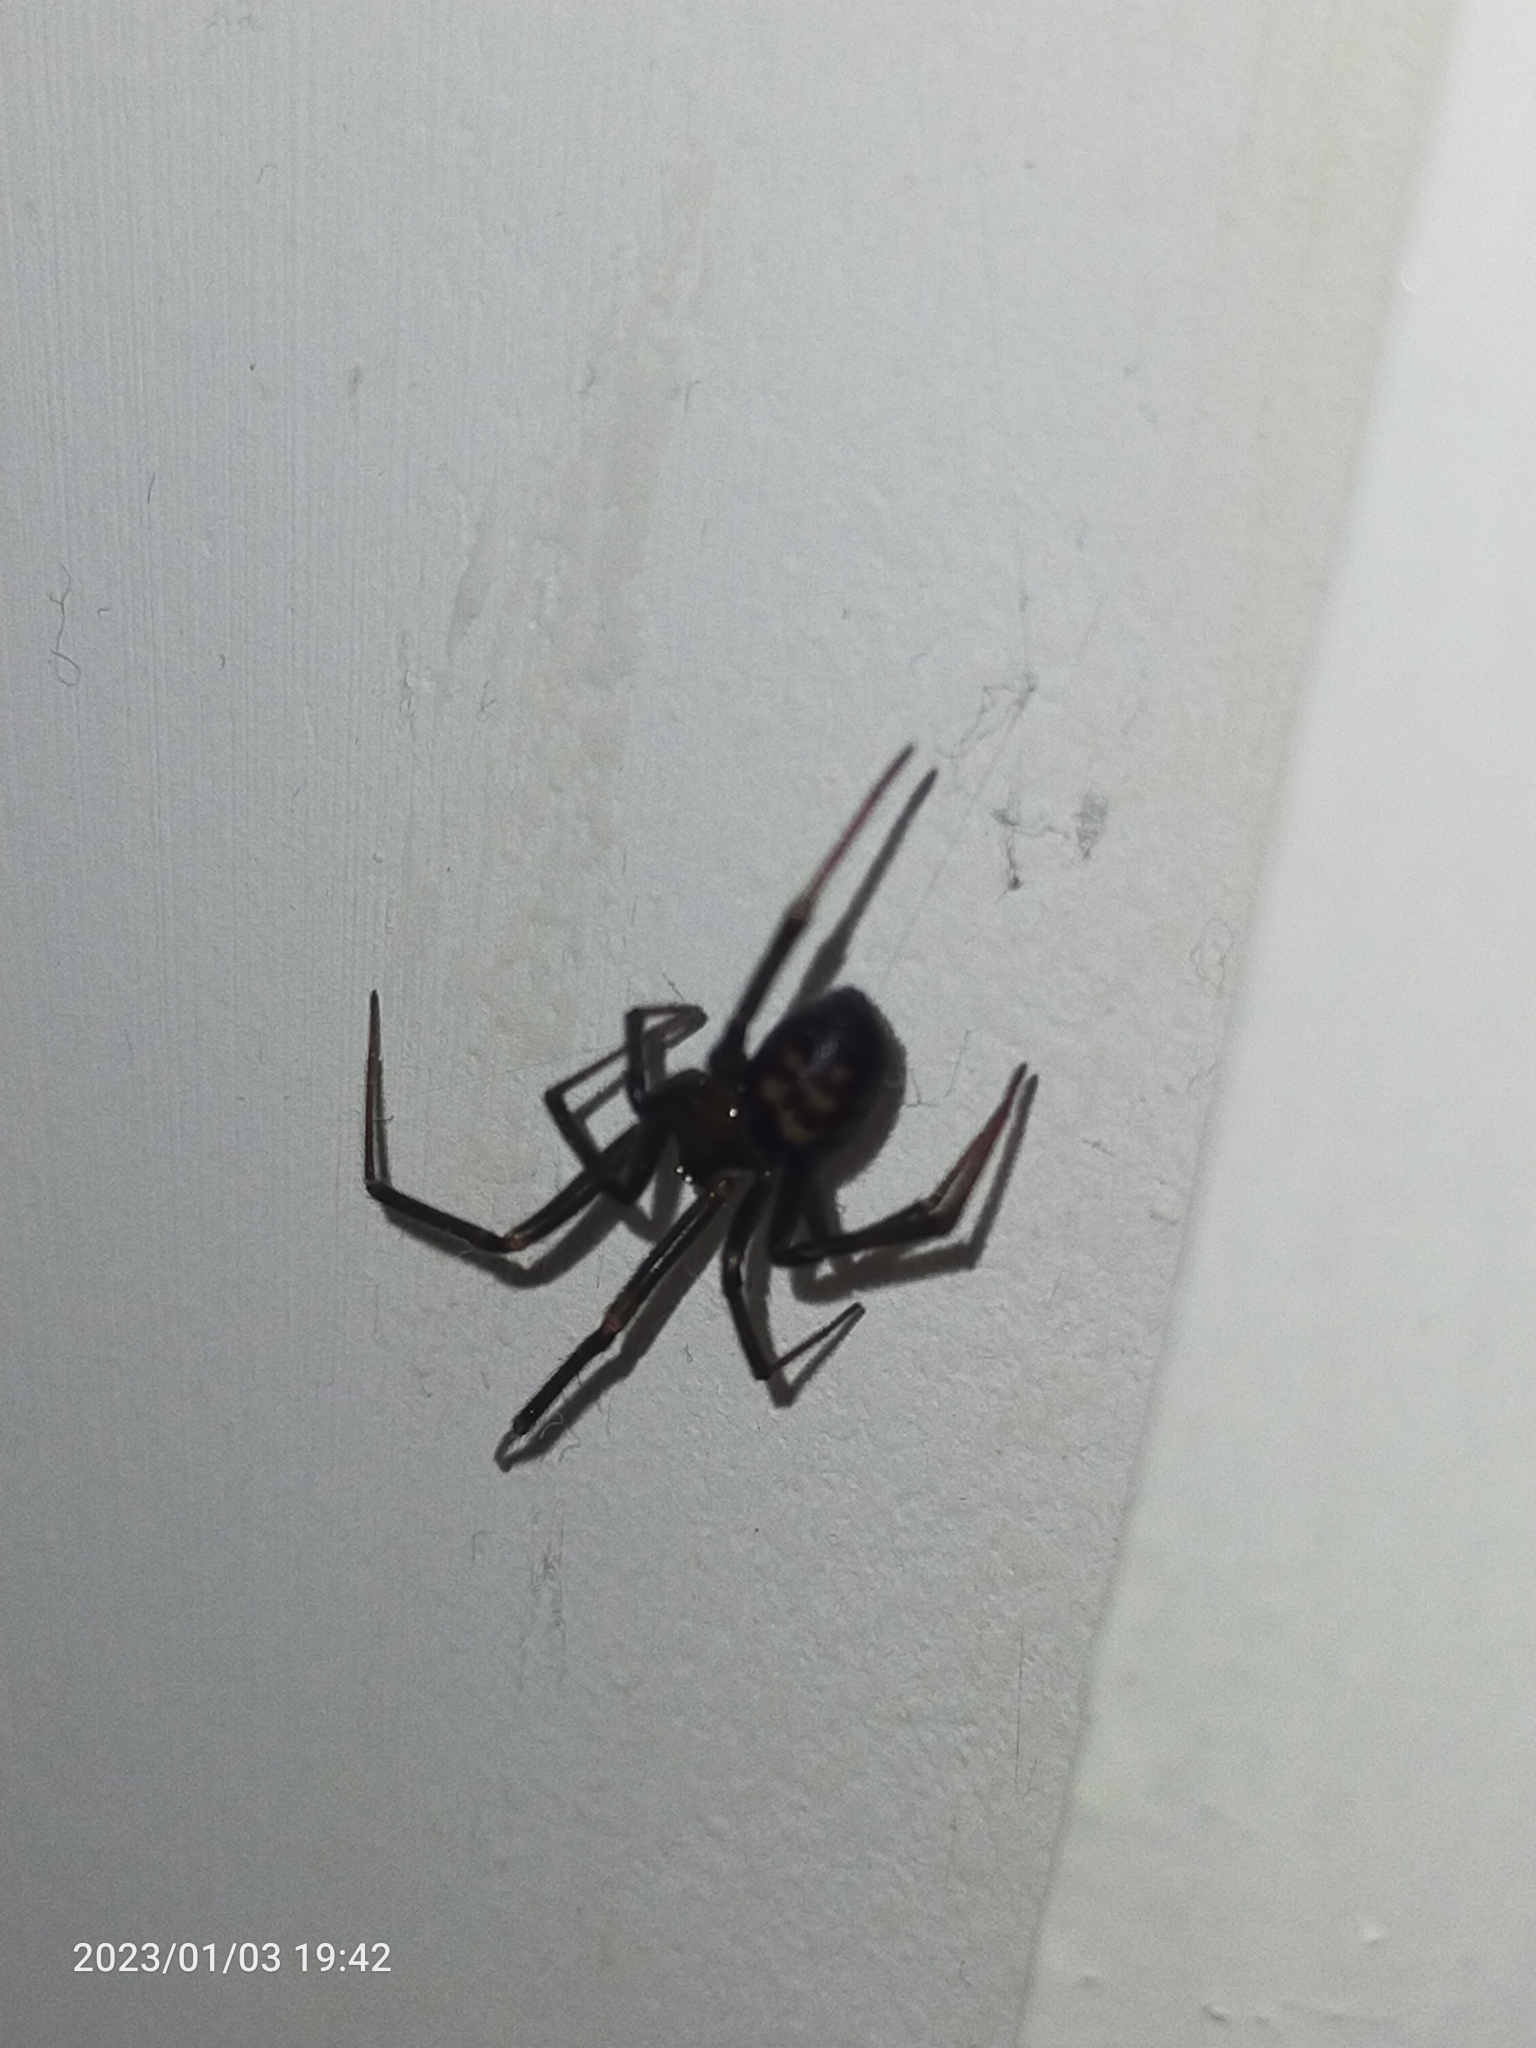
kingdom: Animalia
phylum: Arthropoda
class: Arachnida
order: Araneae
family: Theridiidae
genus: Steatoda
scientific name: Steatoda grossa
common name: False black widow
